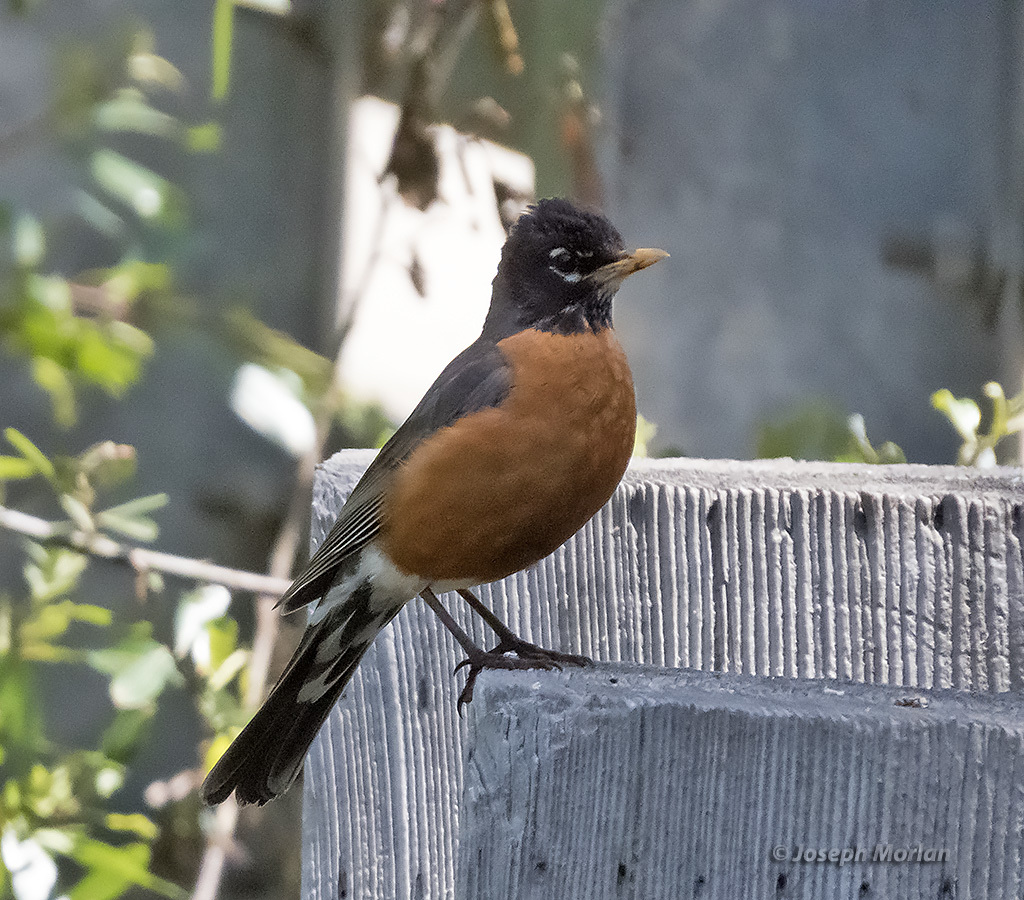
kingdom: Animalia
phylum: Chordata
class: Aves
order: Passeriformes
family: Turdidae
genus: Turdus
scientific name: Turdus migratorius
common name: American robin
